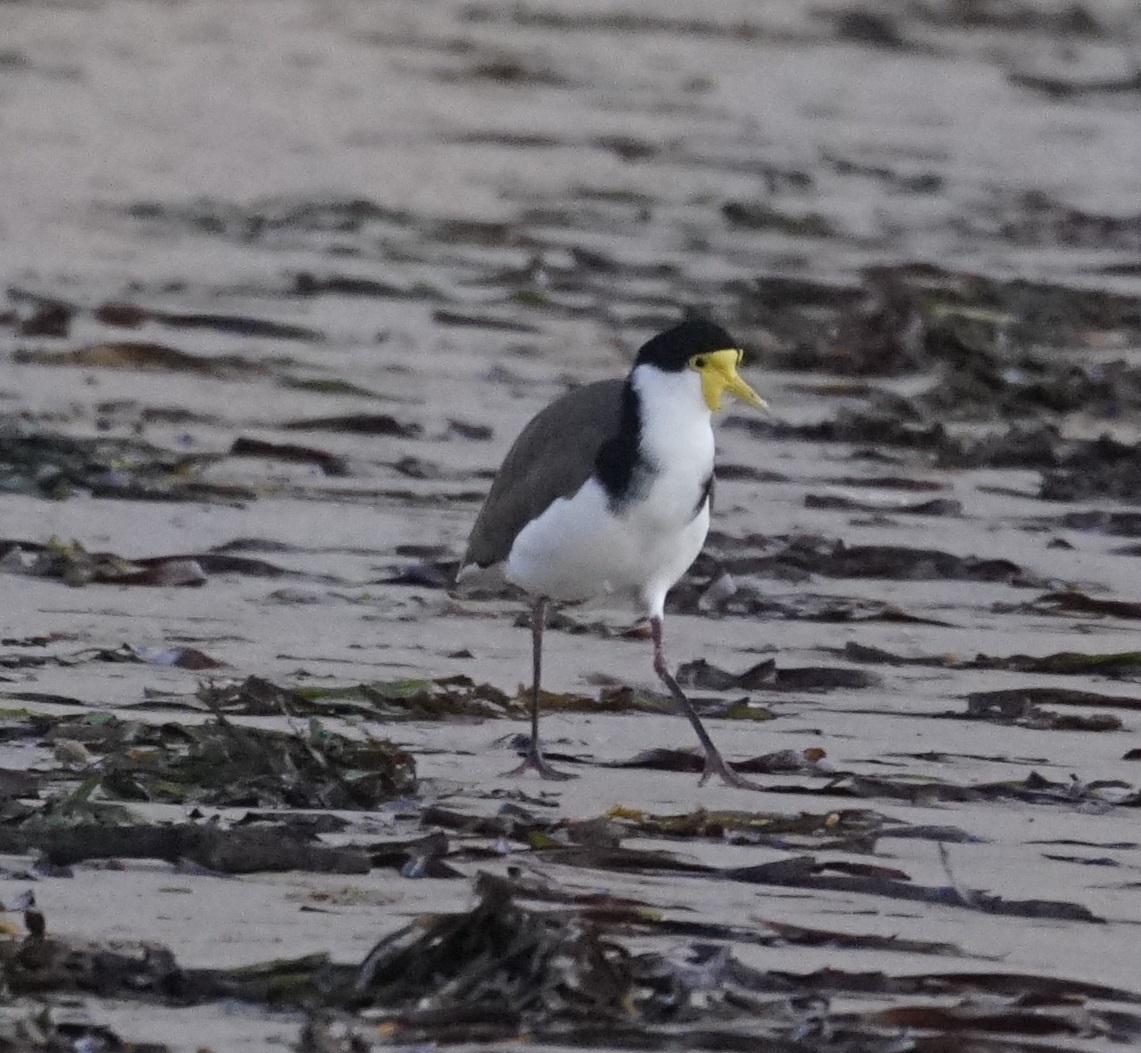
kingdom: Animalia
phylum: Chordata
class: Aves
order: Charadriiformes
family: Charadriidae
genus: Vanellus
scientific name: Vanellus miles
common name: Masked lapwing
